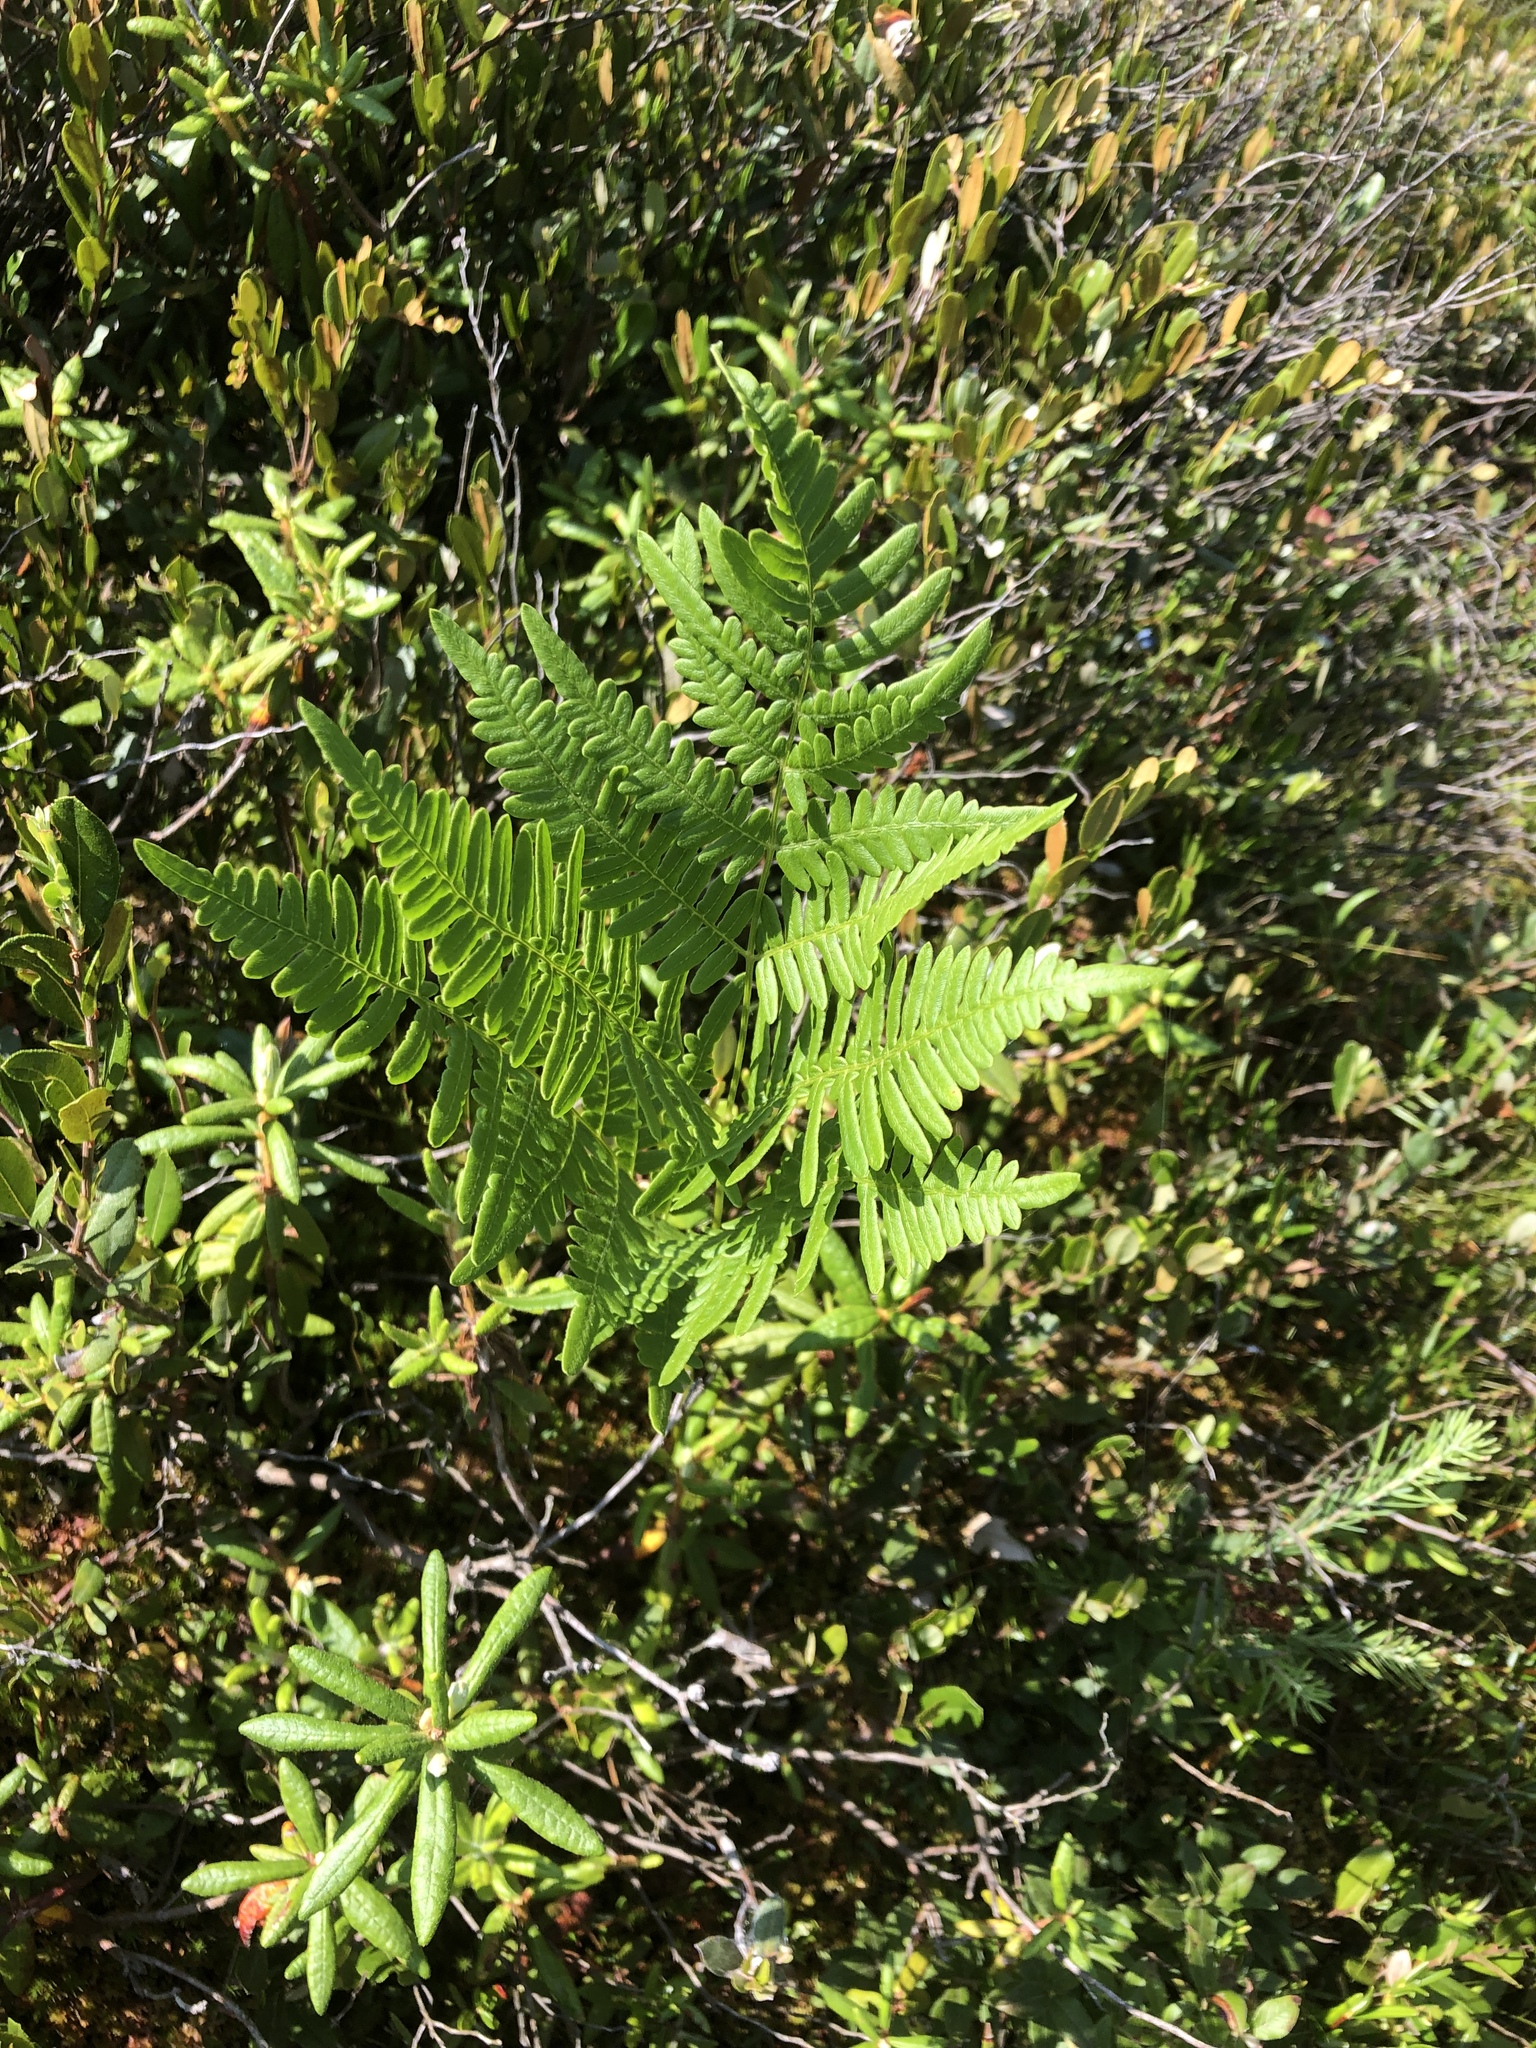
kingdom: Plantae
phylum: Tracheophyta
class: Polypodiopsida
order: Polypodiales
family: Dennstaedtiaceae
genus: Pteridium
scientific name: Pteridium aquilinum
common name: Bracken
